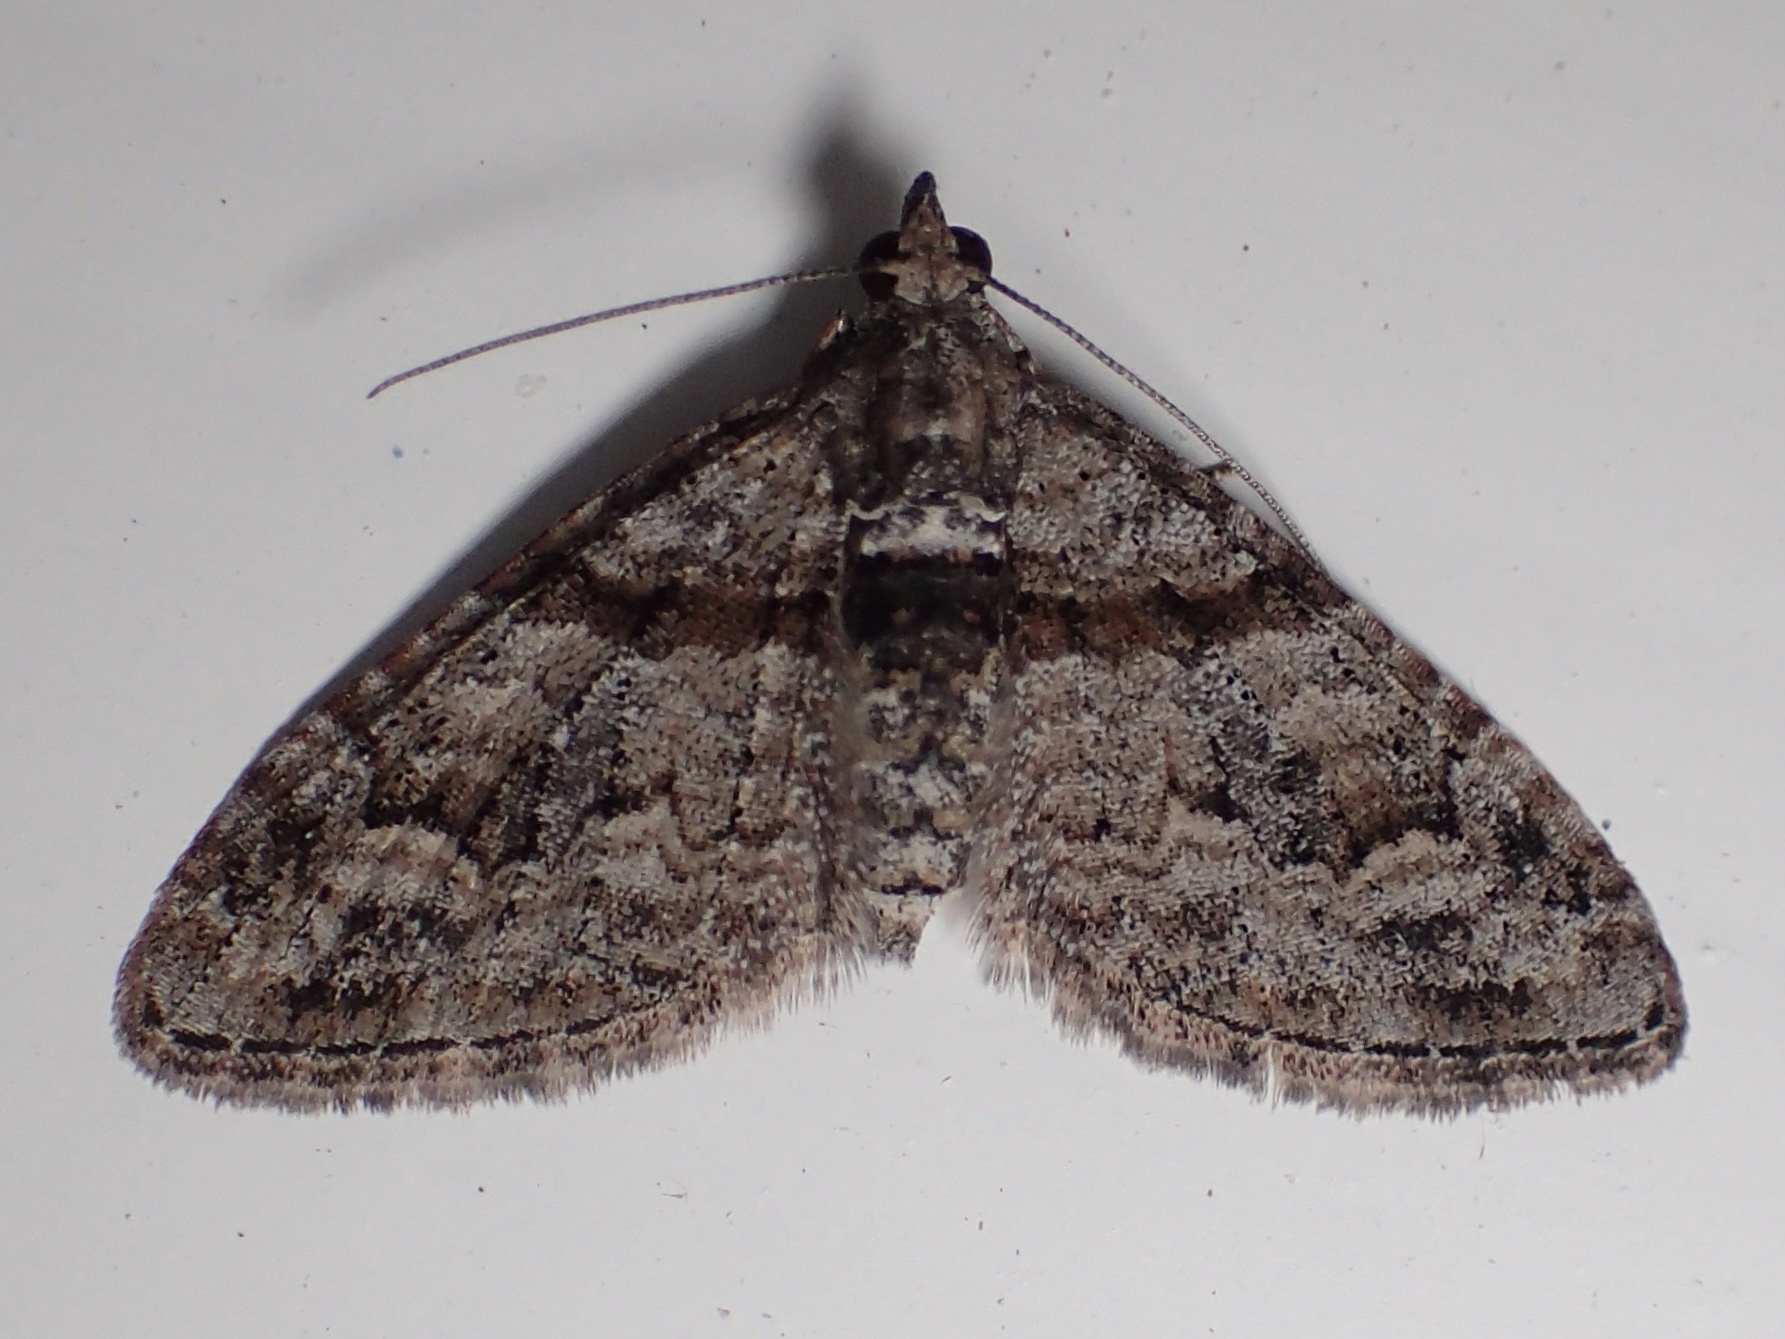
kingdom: Animalia
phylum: Arthropoda
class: Insecta
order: Lepidoptera
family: Geometridae
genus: Phrissogonus
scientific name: Phrissogonus laticostata
